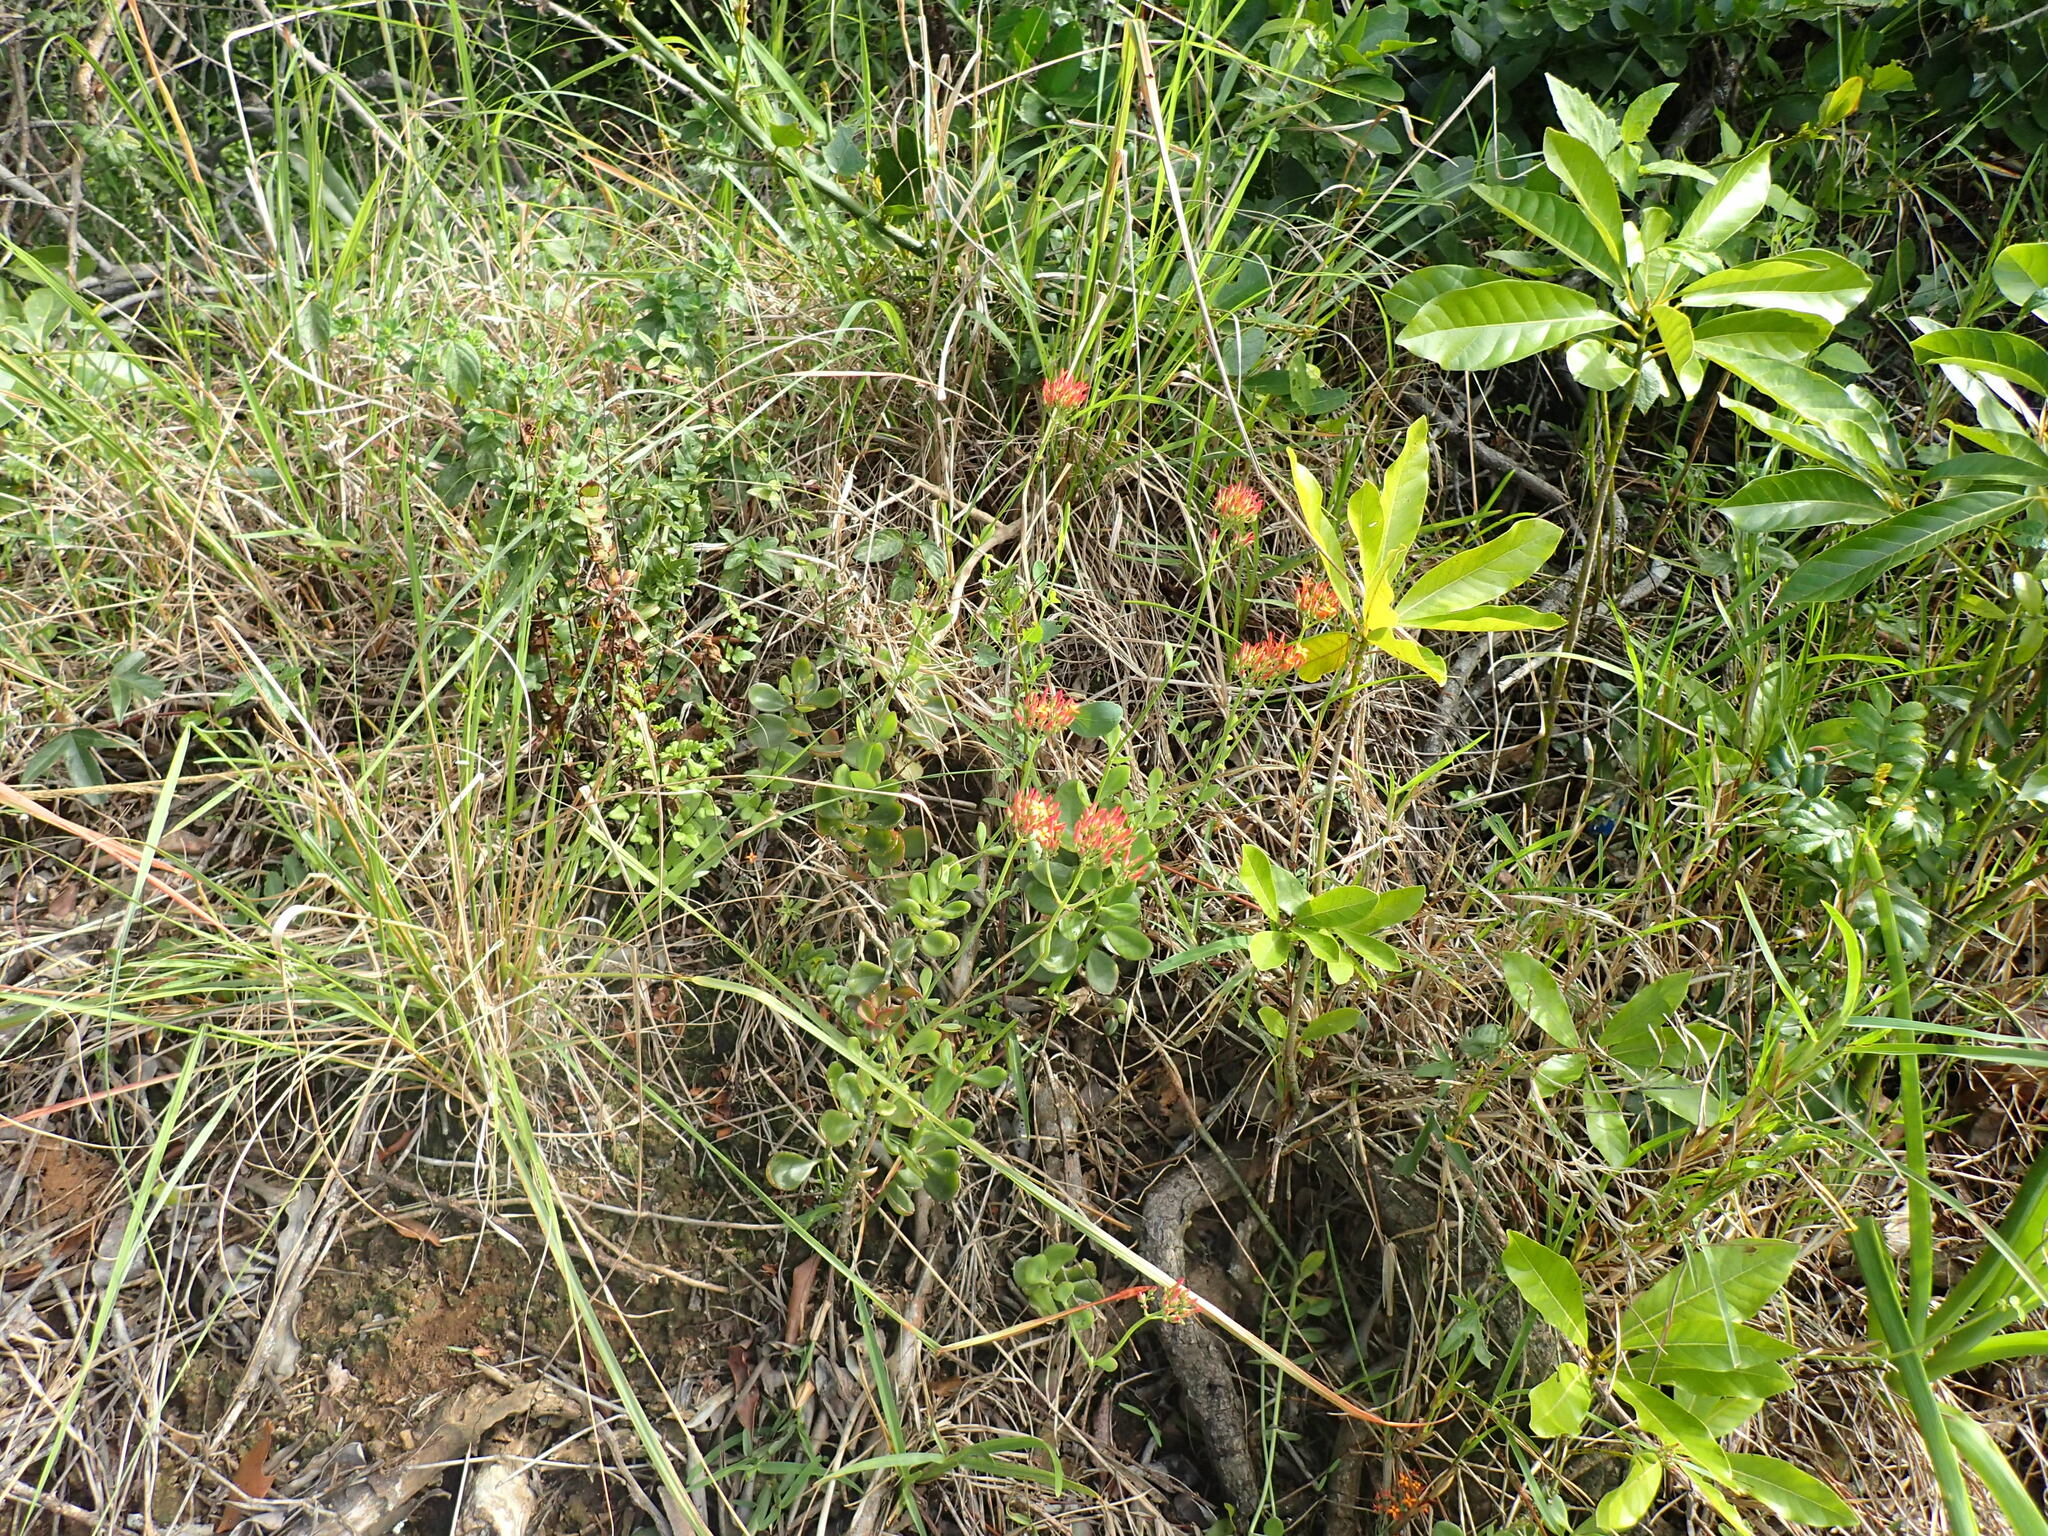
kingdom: Plantae
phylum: Tracheophyta
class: Magnoliopsida
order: Saxifragales
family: Crassulaceae
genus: Kalanchoe
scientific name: Kalanchoe rotundifolia
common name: Common kalanchoe
